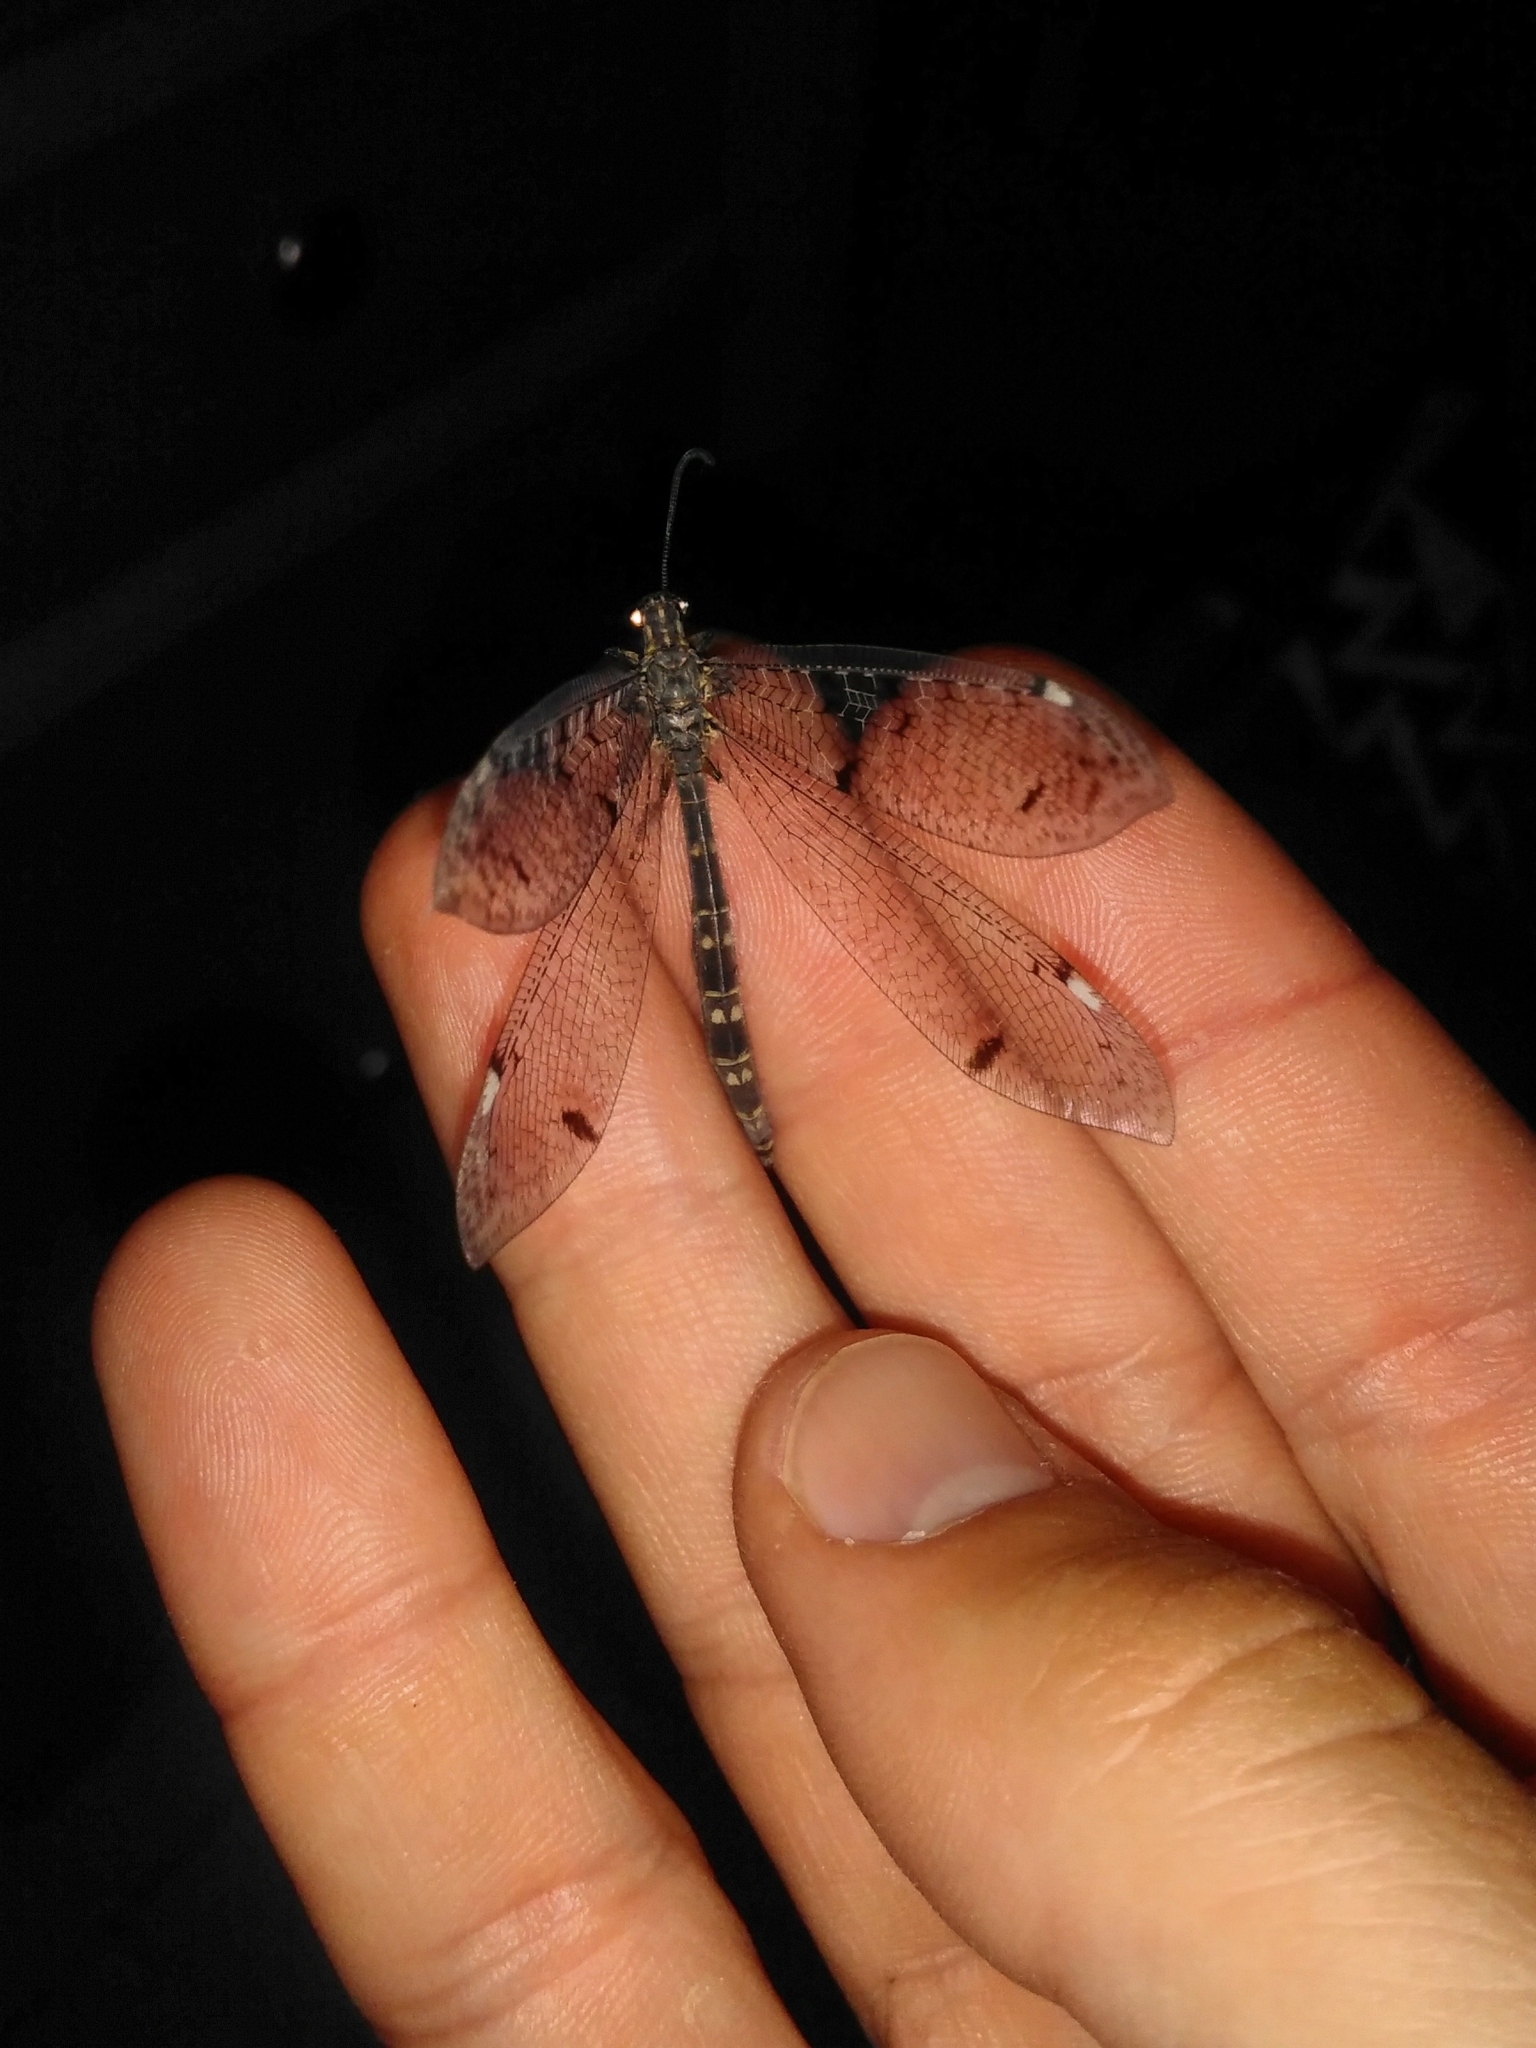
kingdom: Animalia
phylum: Arthropoda
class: Insecta
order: Neuroptera
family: Myrmeleontidae
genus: Distoleon
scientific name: Distoleon tetragrammicus
